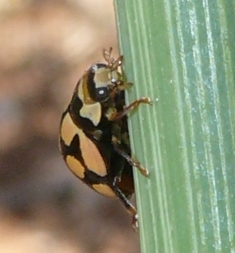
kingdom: Animalia
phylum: Arthropoda
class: Insecta
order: Coleoptera
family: Coccinellidae
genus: Cheilomenes
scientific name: Cheilomenes lunata
